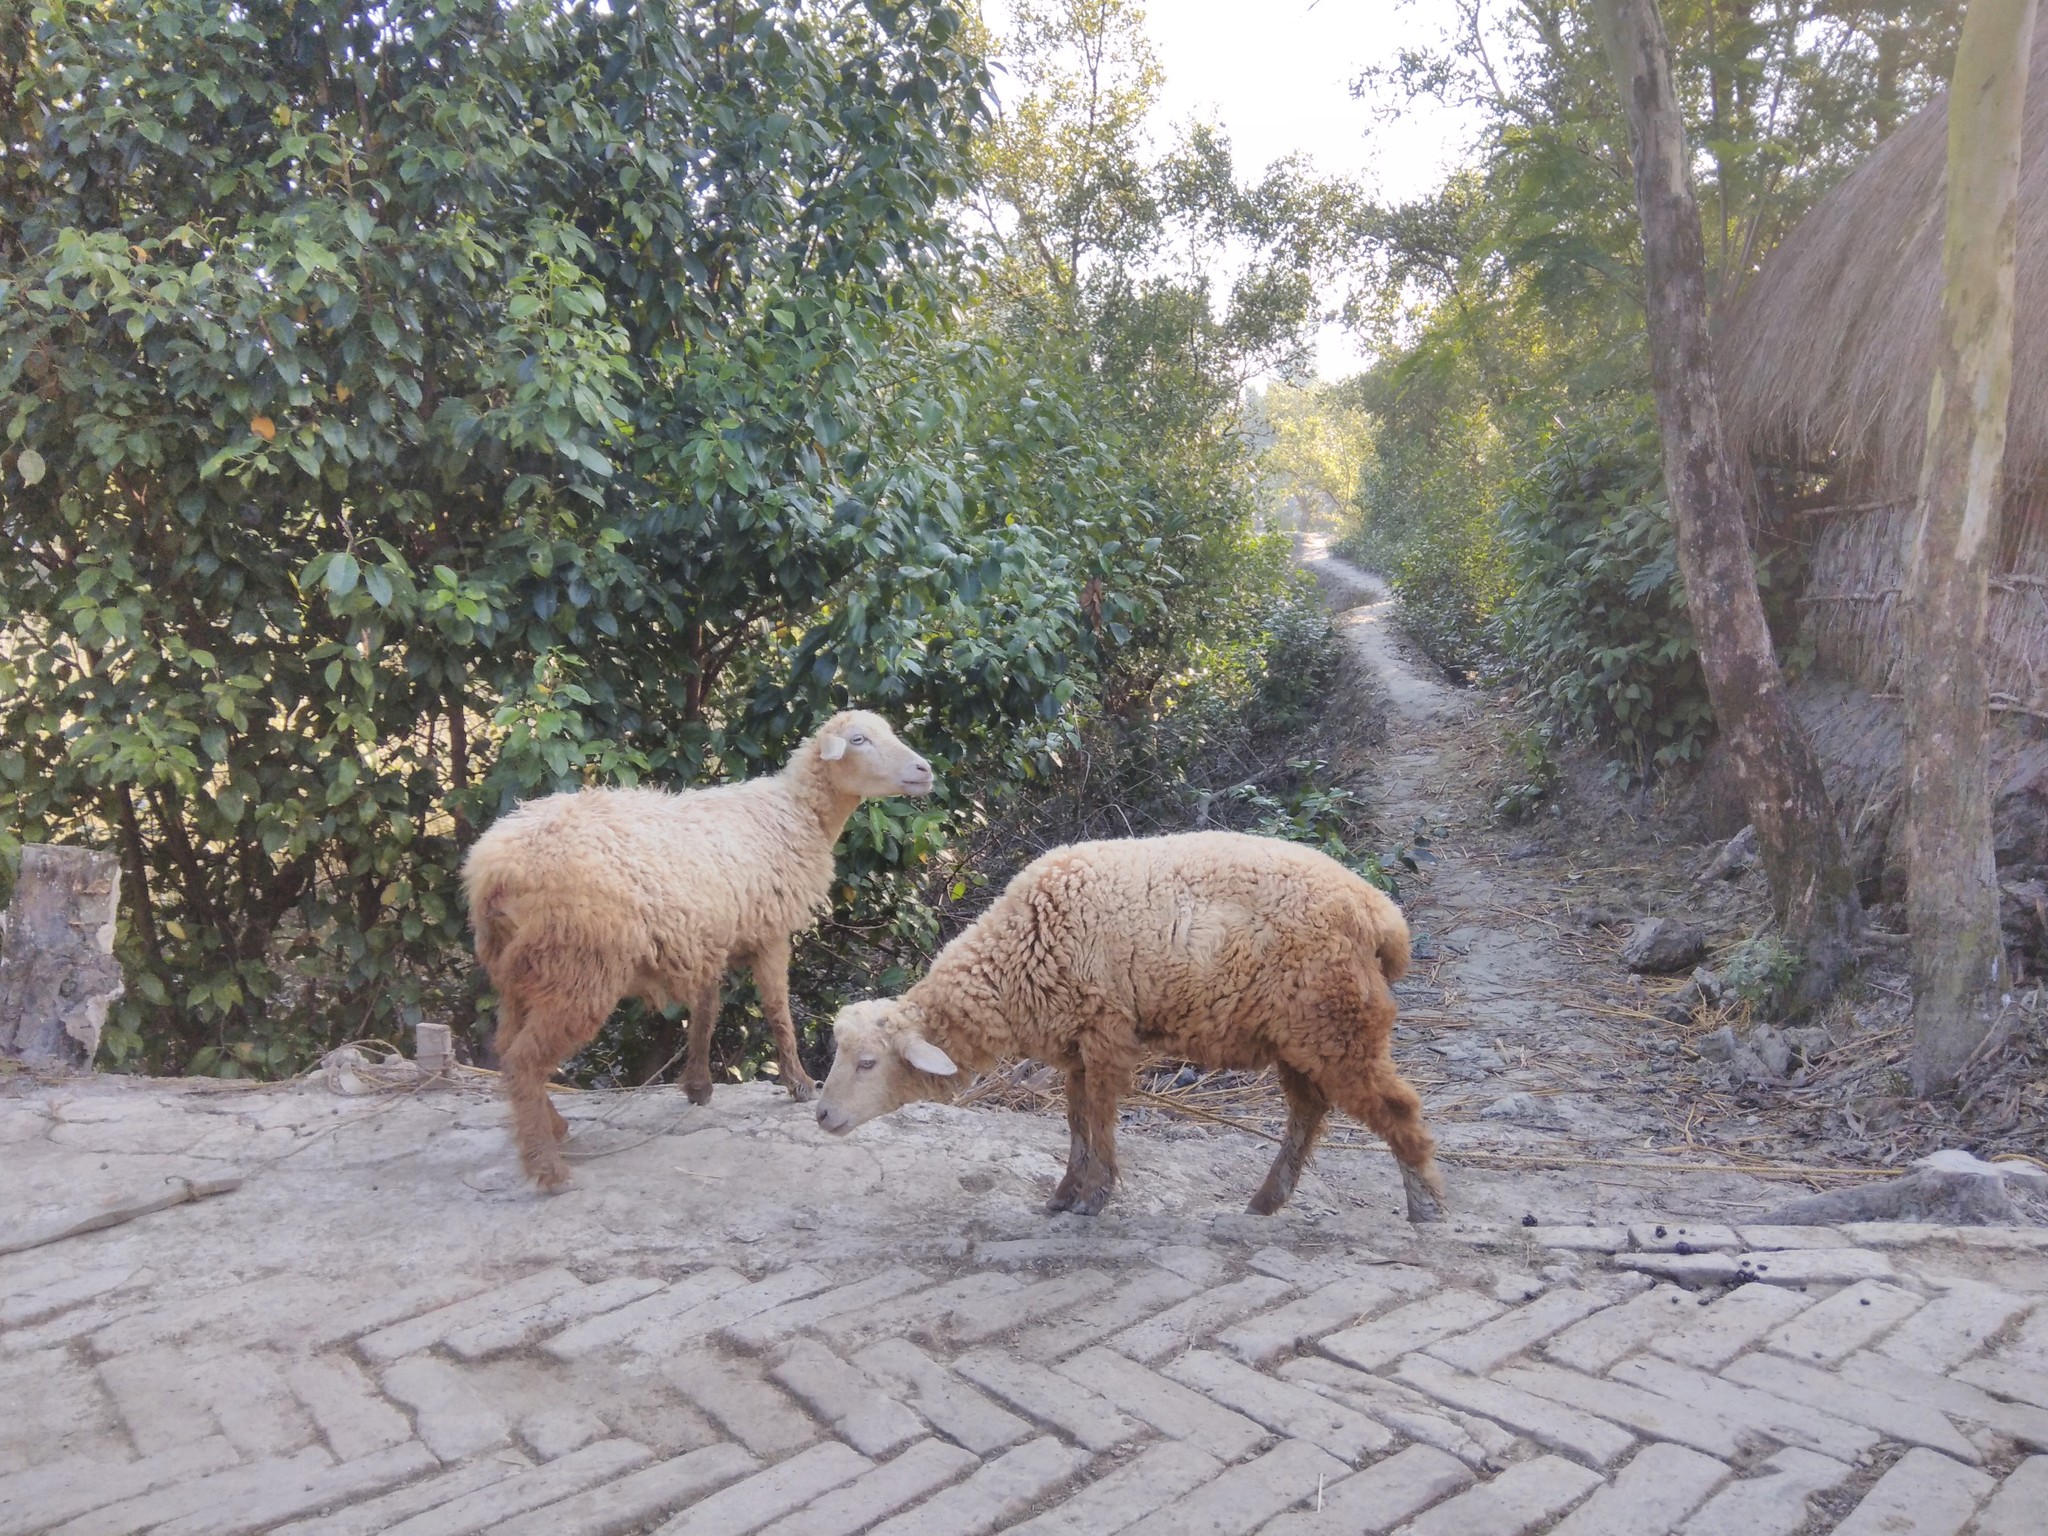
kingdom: Animalia
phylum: Chordata
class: Mammalia
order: Artiodactyla
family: Bovidae
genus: Ovis
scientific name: Ovis aries
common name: Domestic sheep
